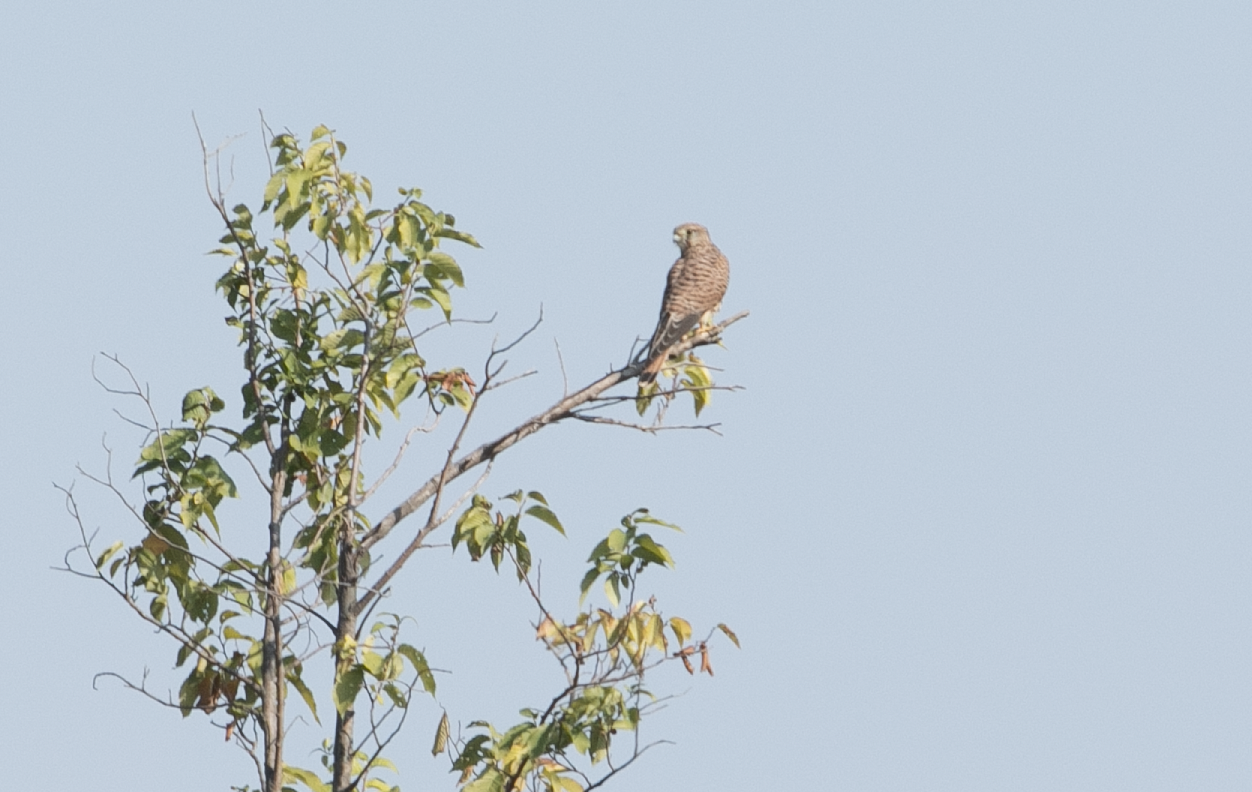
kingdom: Animalia
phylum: Chordata
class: Aves
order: Falconiformes
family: Falconidae
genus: Falco
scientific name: Falco tinnunculus
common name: Common kestrel
